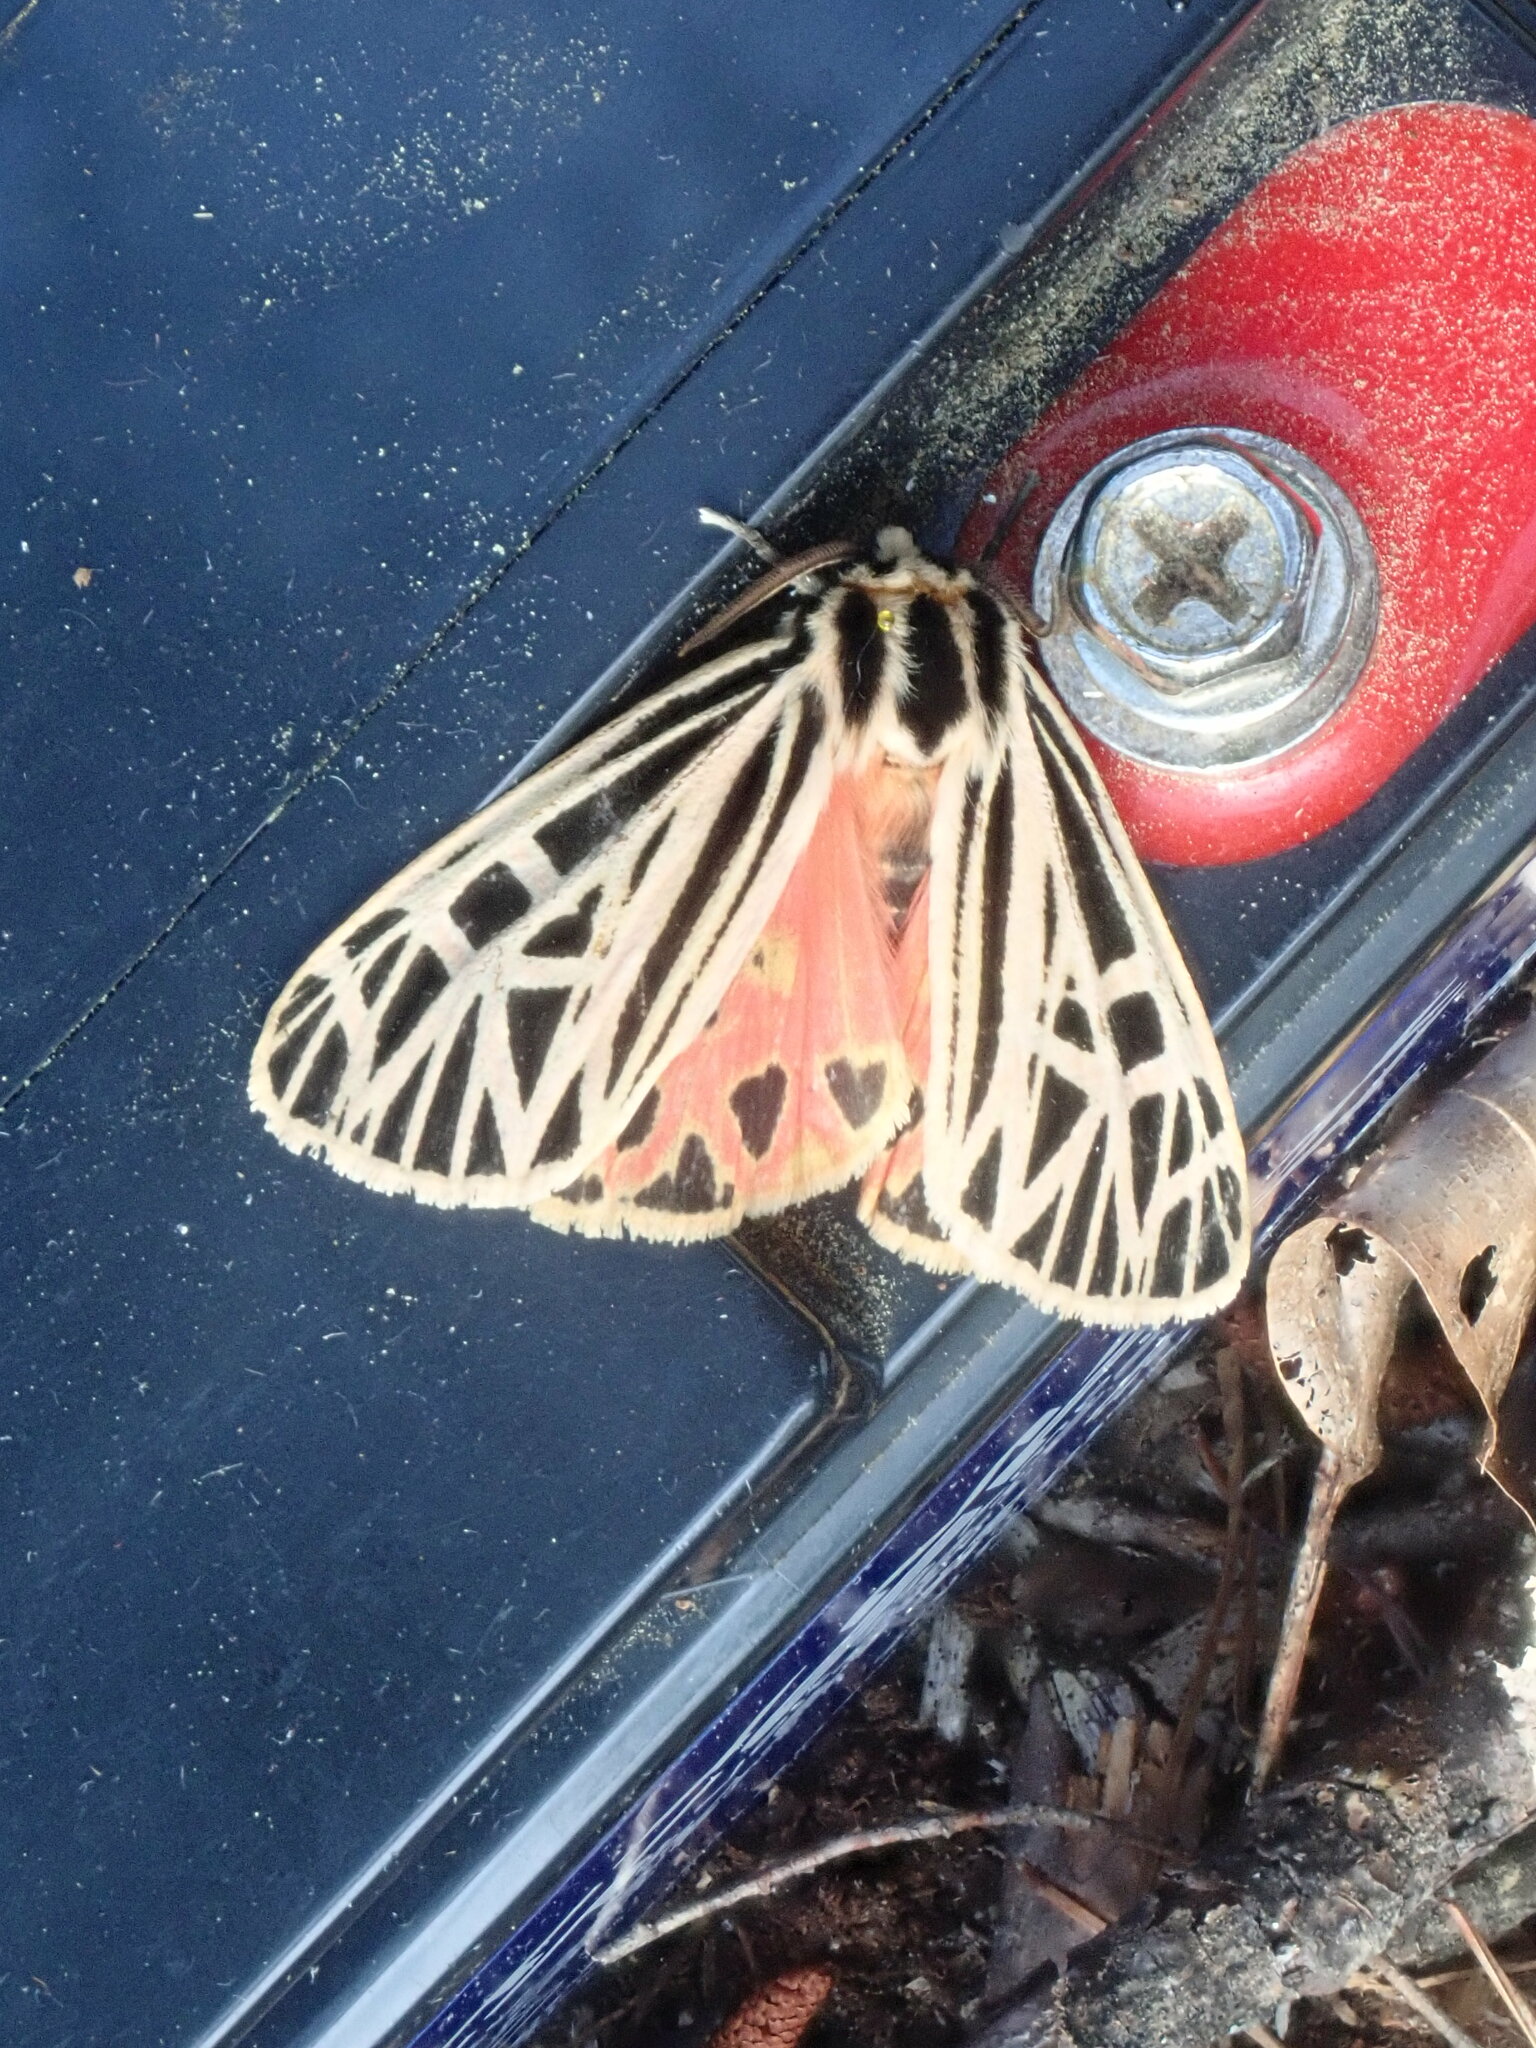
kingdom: Animalia
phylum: Arthropoda
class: Insecta
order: Lepidoptera
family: Erebidae
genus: Grammia
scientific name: Grammia virgo
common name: Virgin tiger moth
